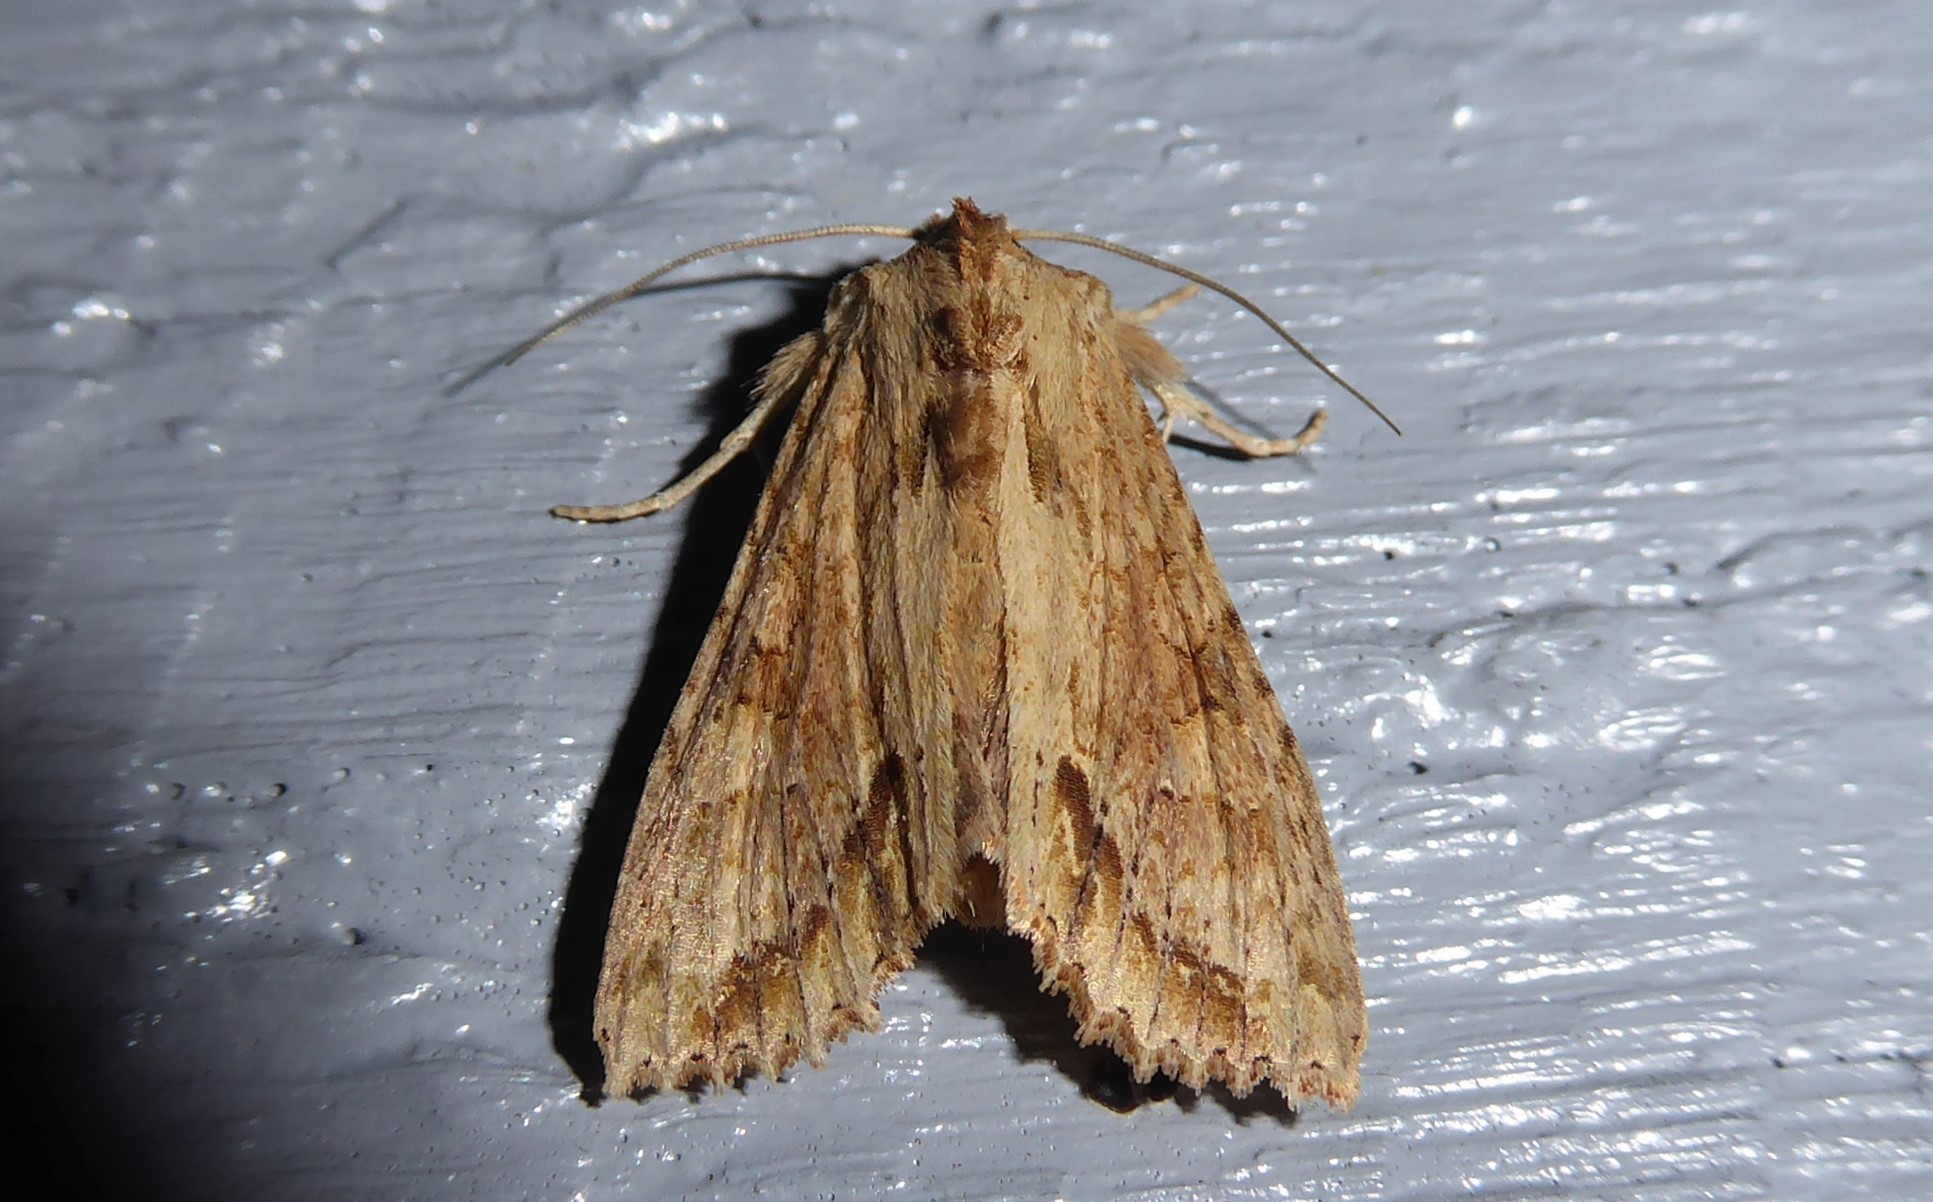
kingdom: Animalia
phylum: Arthropoda
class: Insecta
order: Lepidoptera
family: Noctuidae
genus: Ichneutica
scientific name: Ichneutica mollis
